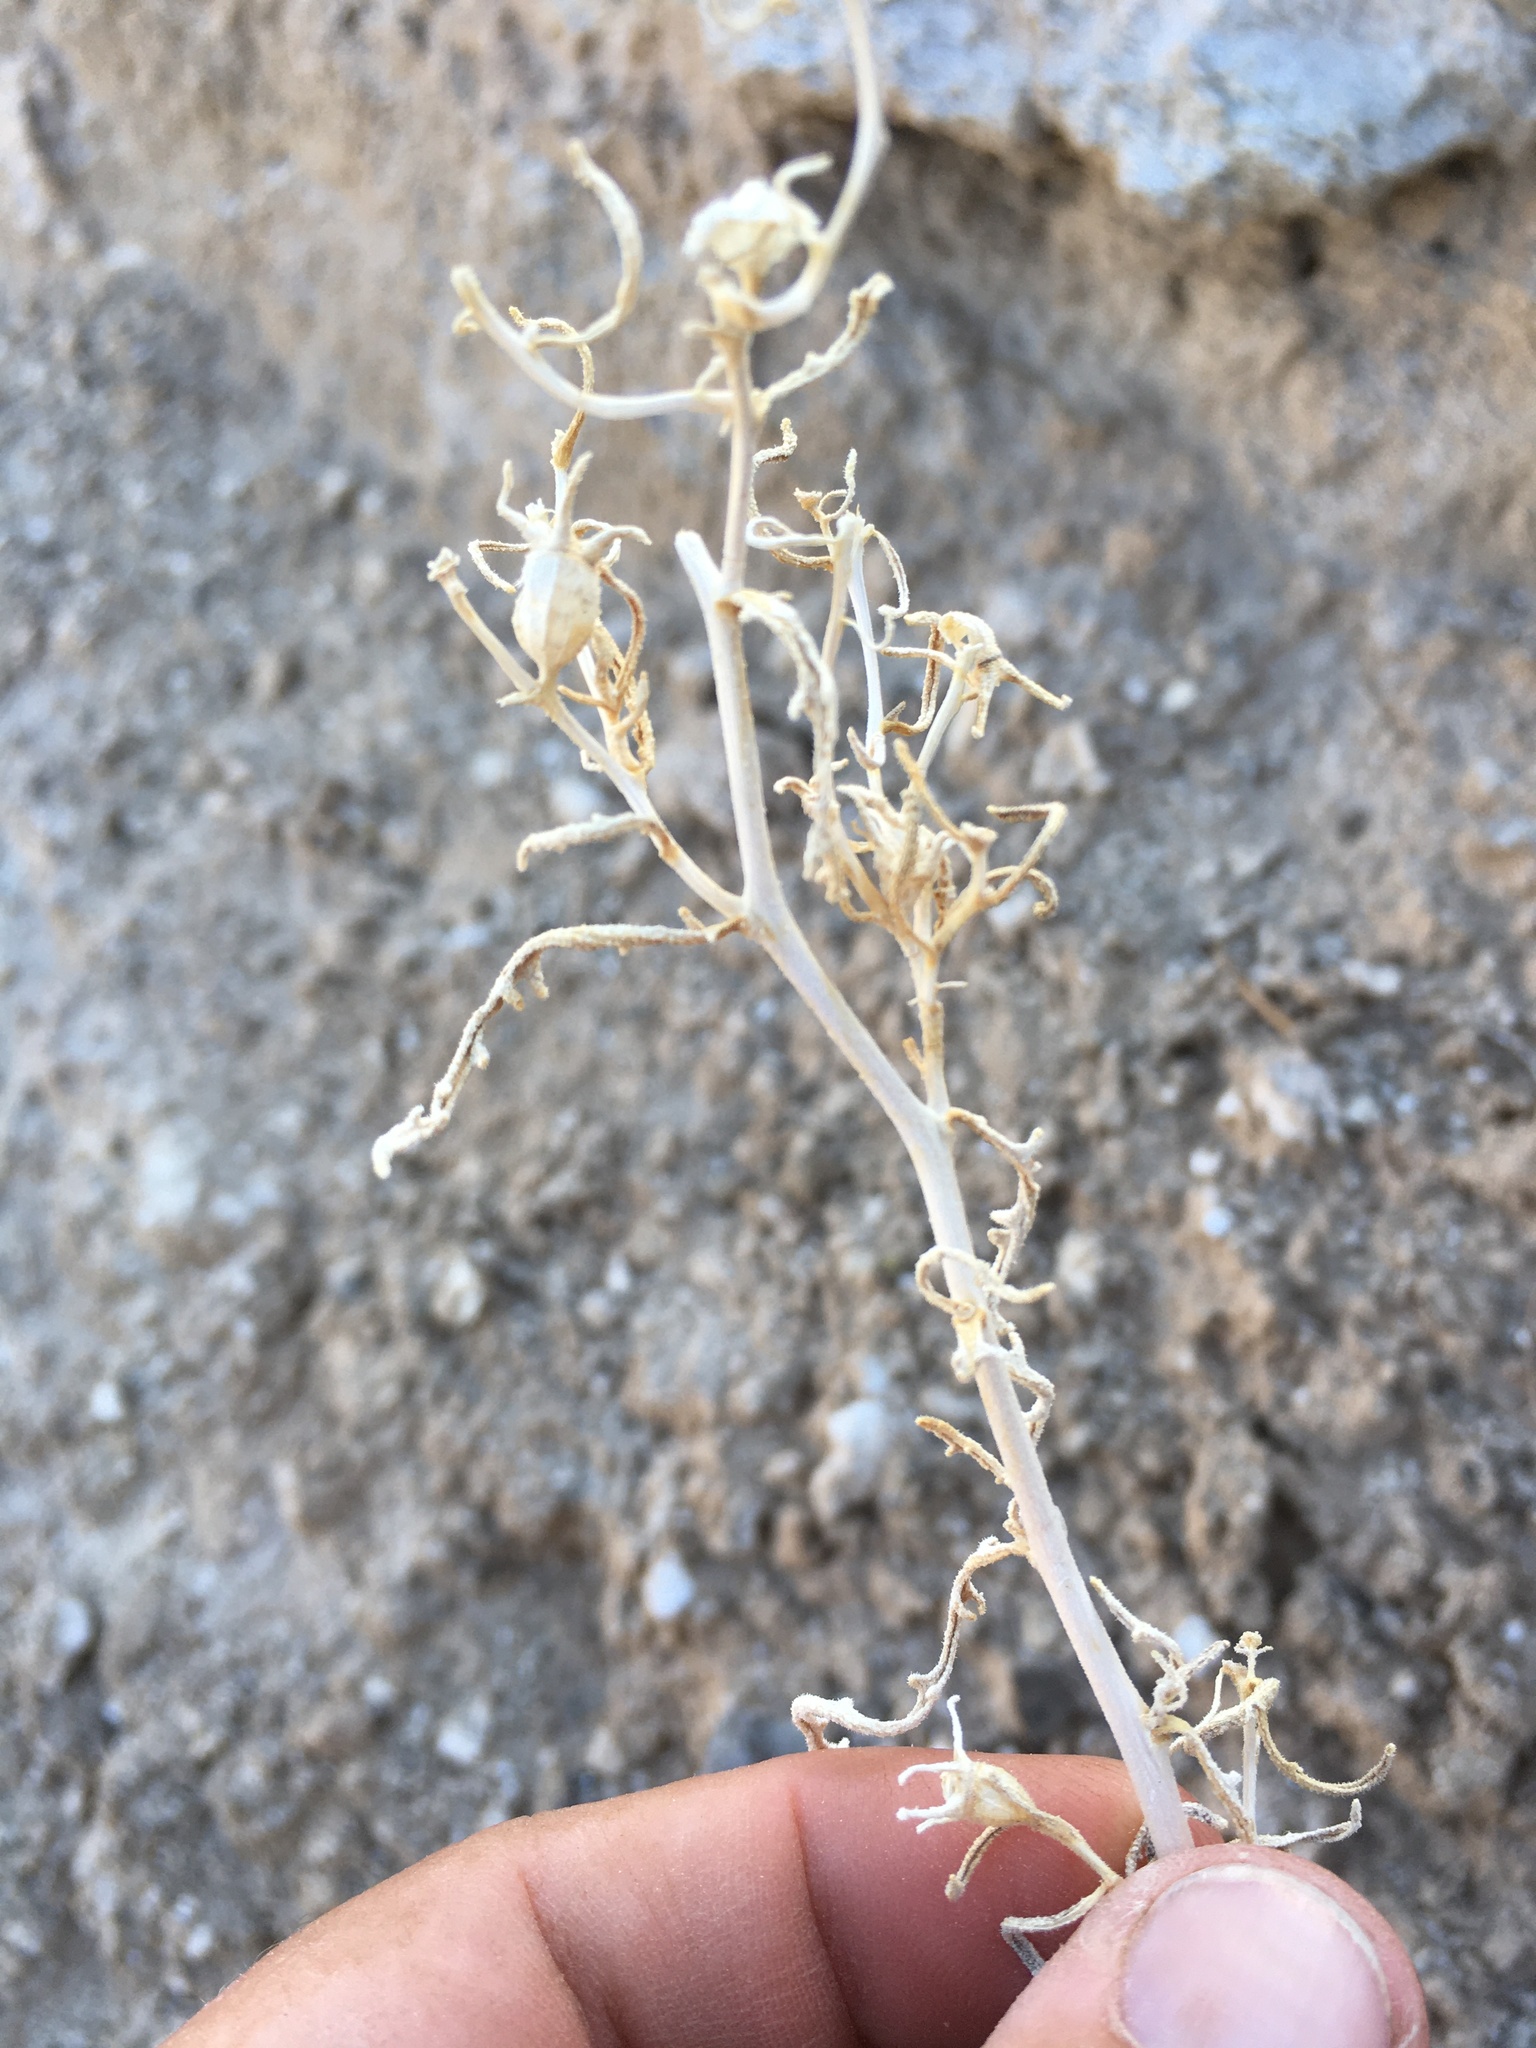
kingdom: Plantae
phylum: Tracheophyta
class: Magnoliopsida
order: Cornales
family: Loasaceae
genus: Mentzelia
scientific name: Mentzelia todiltoensis
